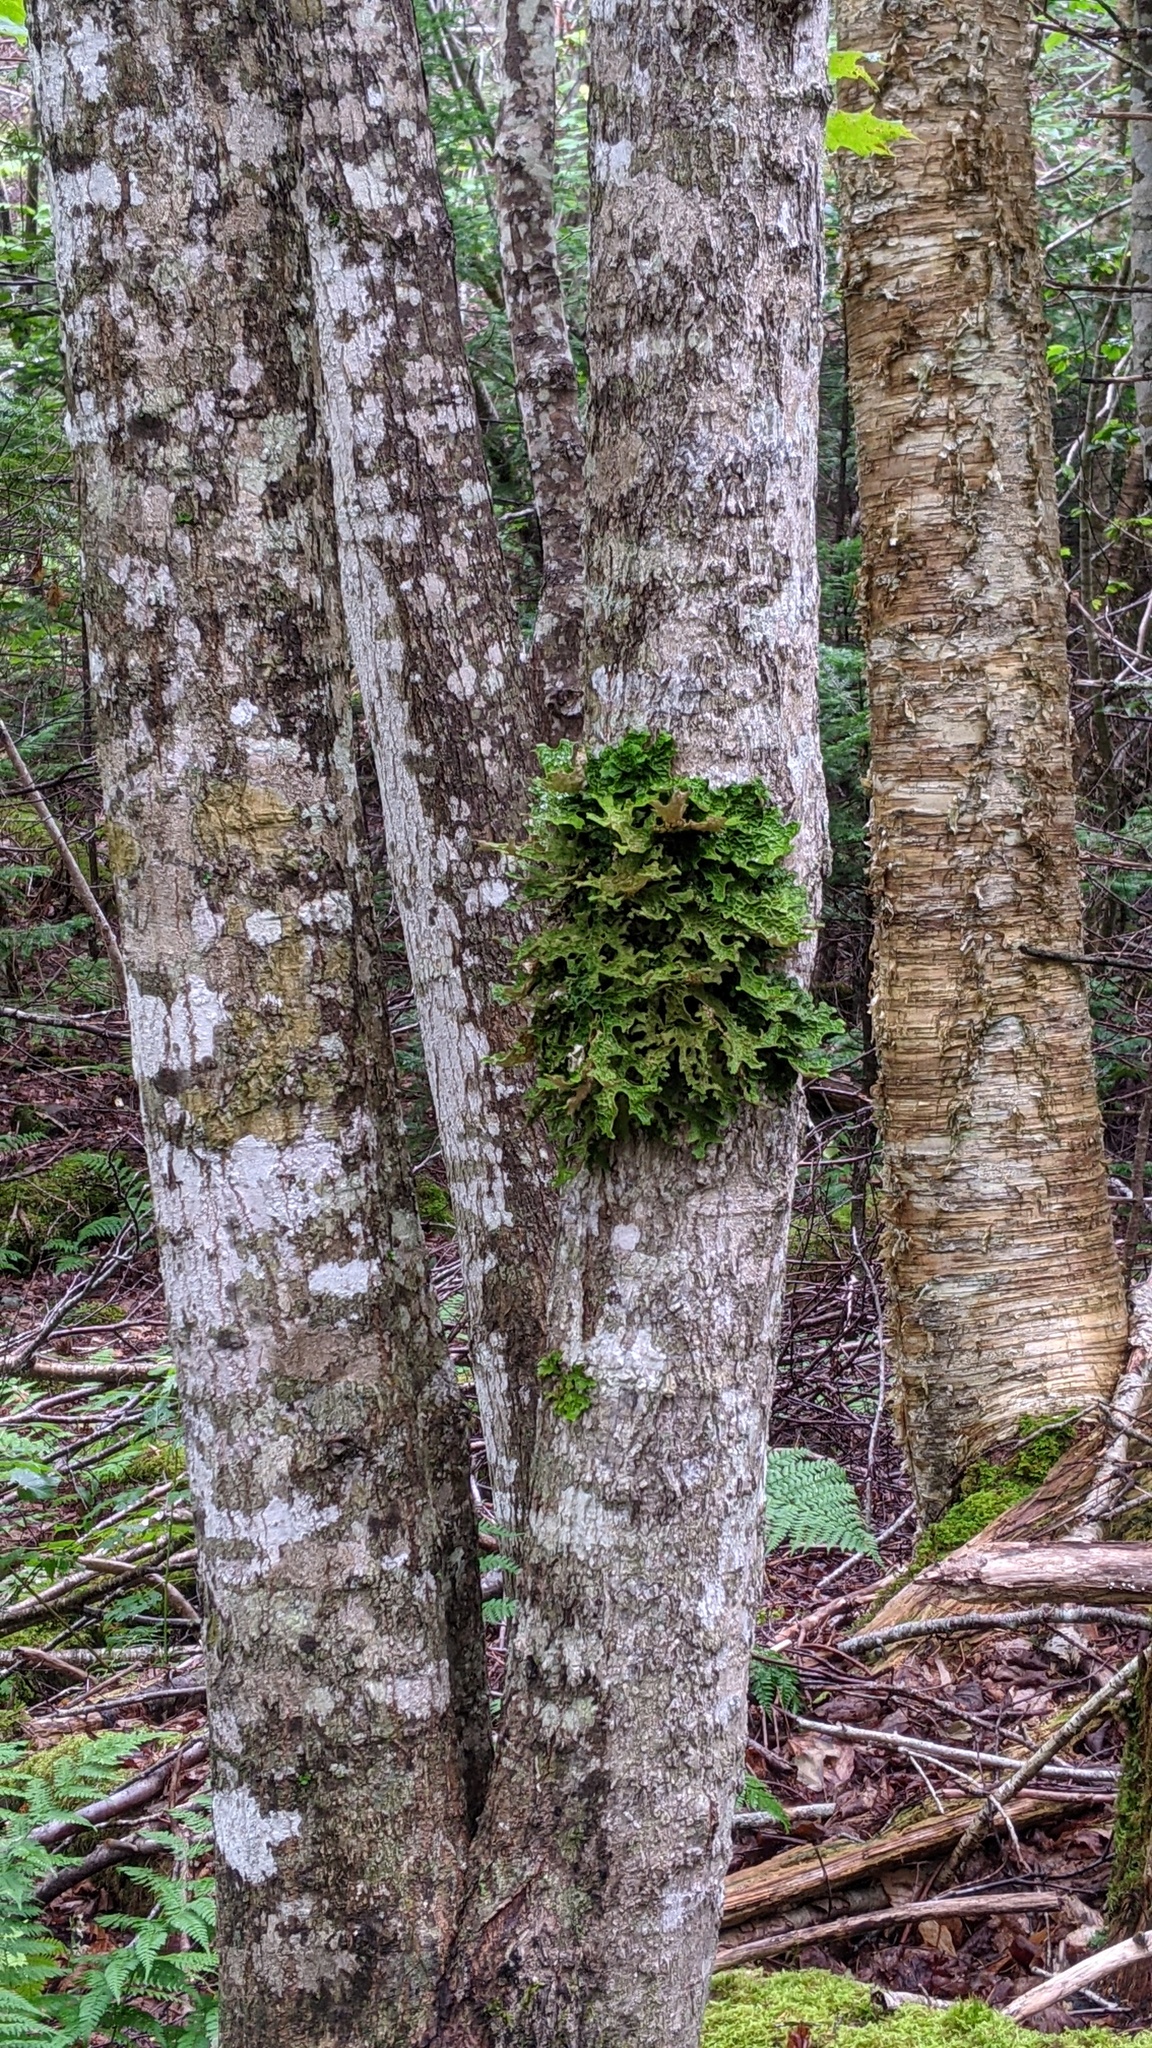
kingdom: Fungi
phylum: Ascomycota
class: Lecanoromycetes
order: Peltigerales
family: Lobariaceae
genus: Lobaria
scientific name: Lobaria pulmonaria
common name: Lungwort
